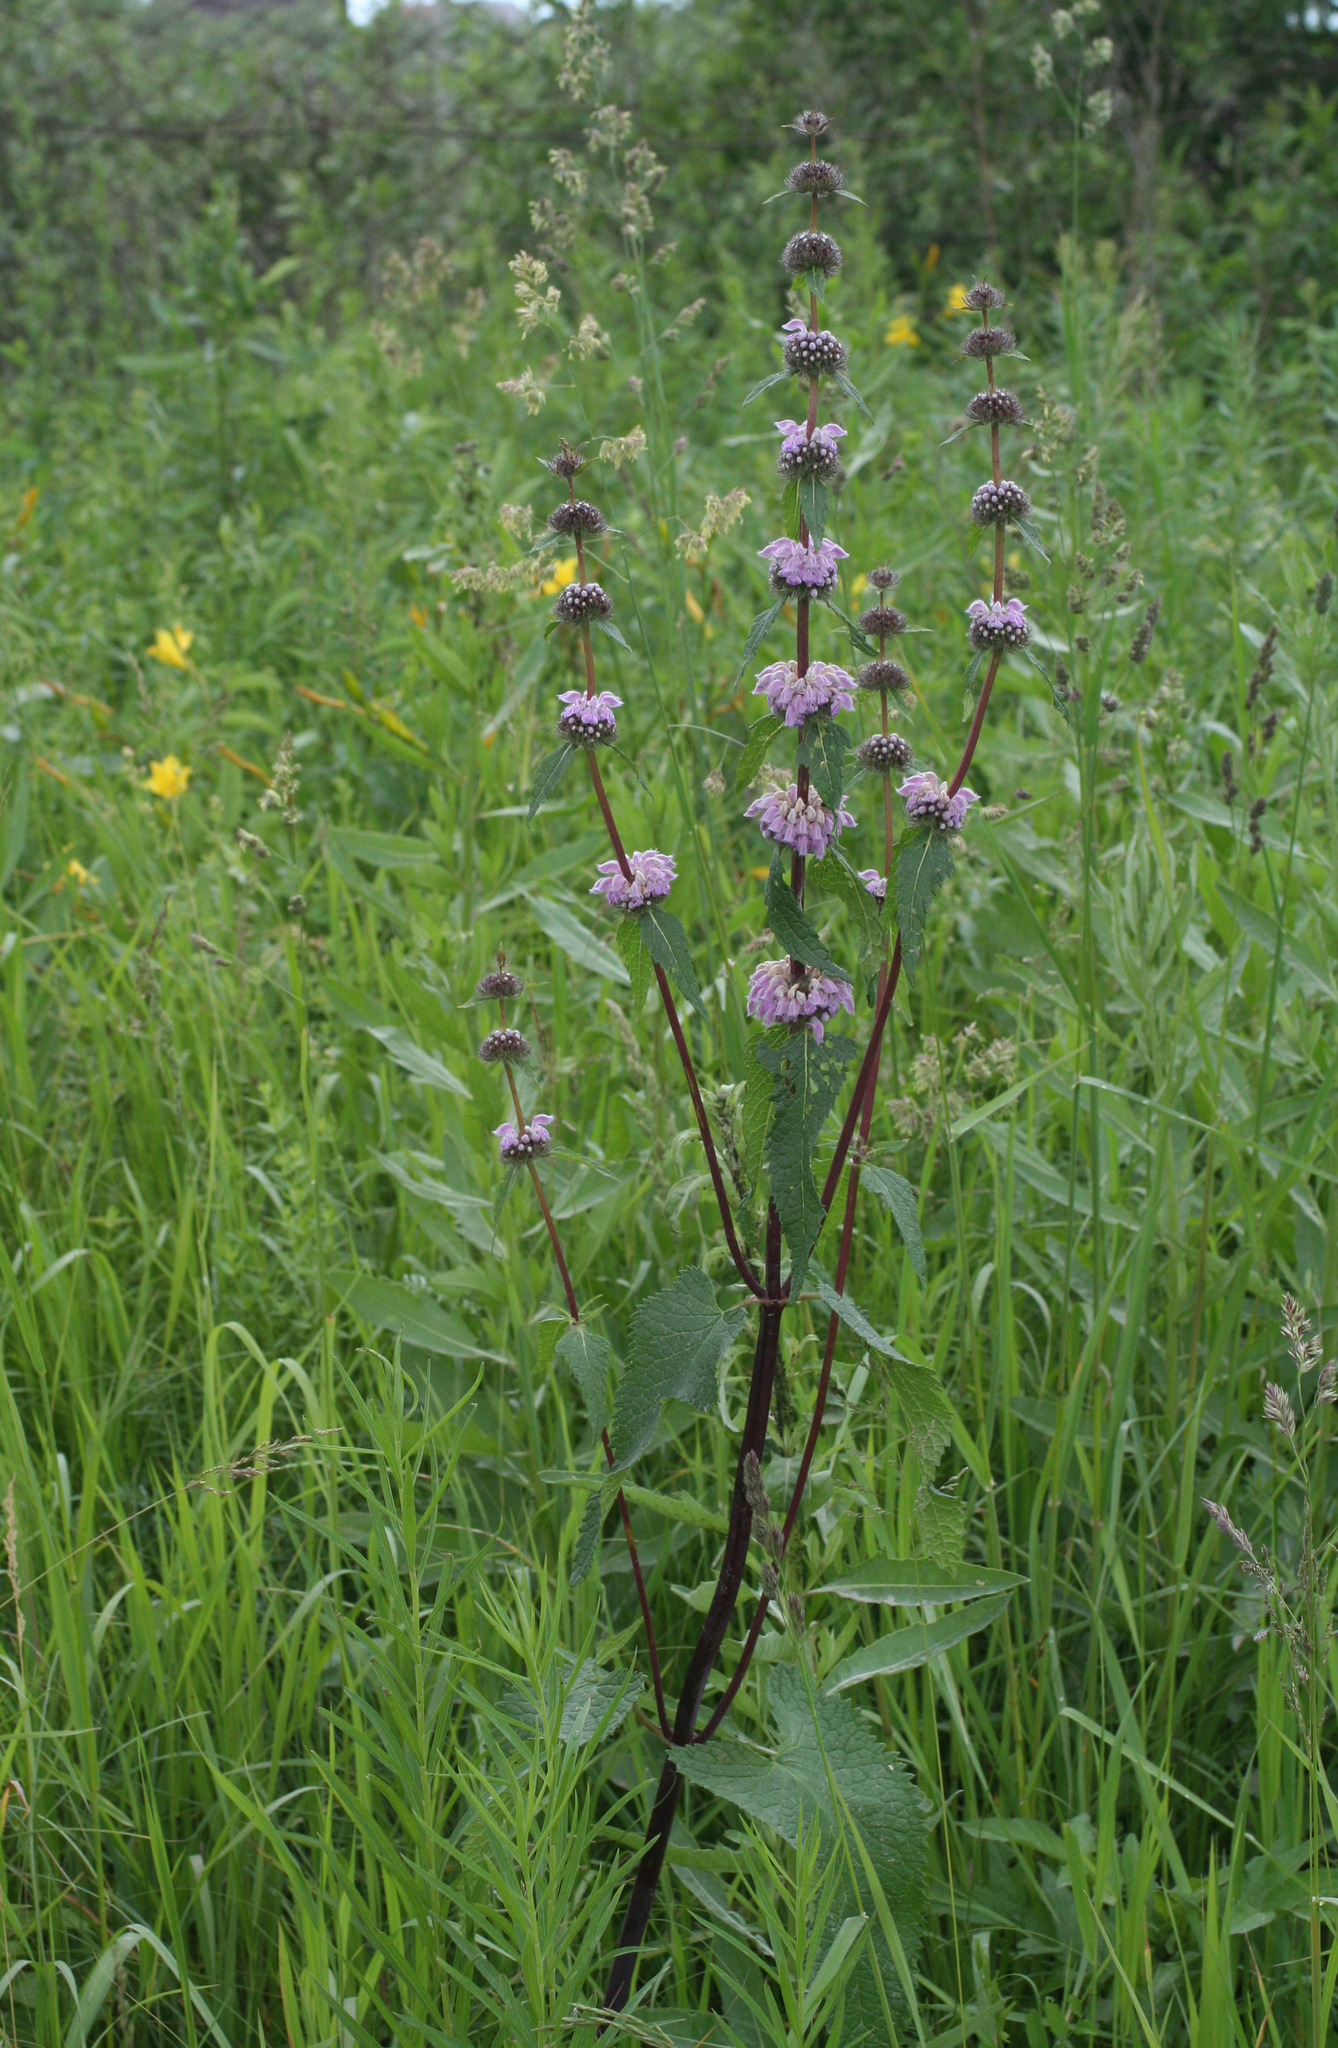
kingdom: Plantae
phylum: Tracheophyta
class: Magnoliopsida
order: Lamiales
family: Lamiaceae
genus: Phlomoides
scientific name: Phlomoides tuberosa
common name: Tuberous jerusalem sage
